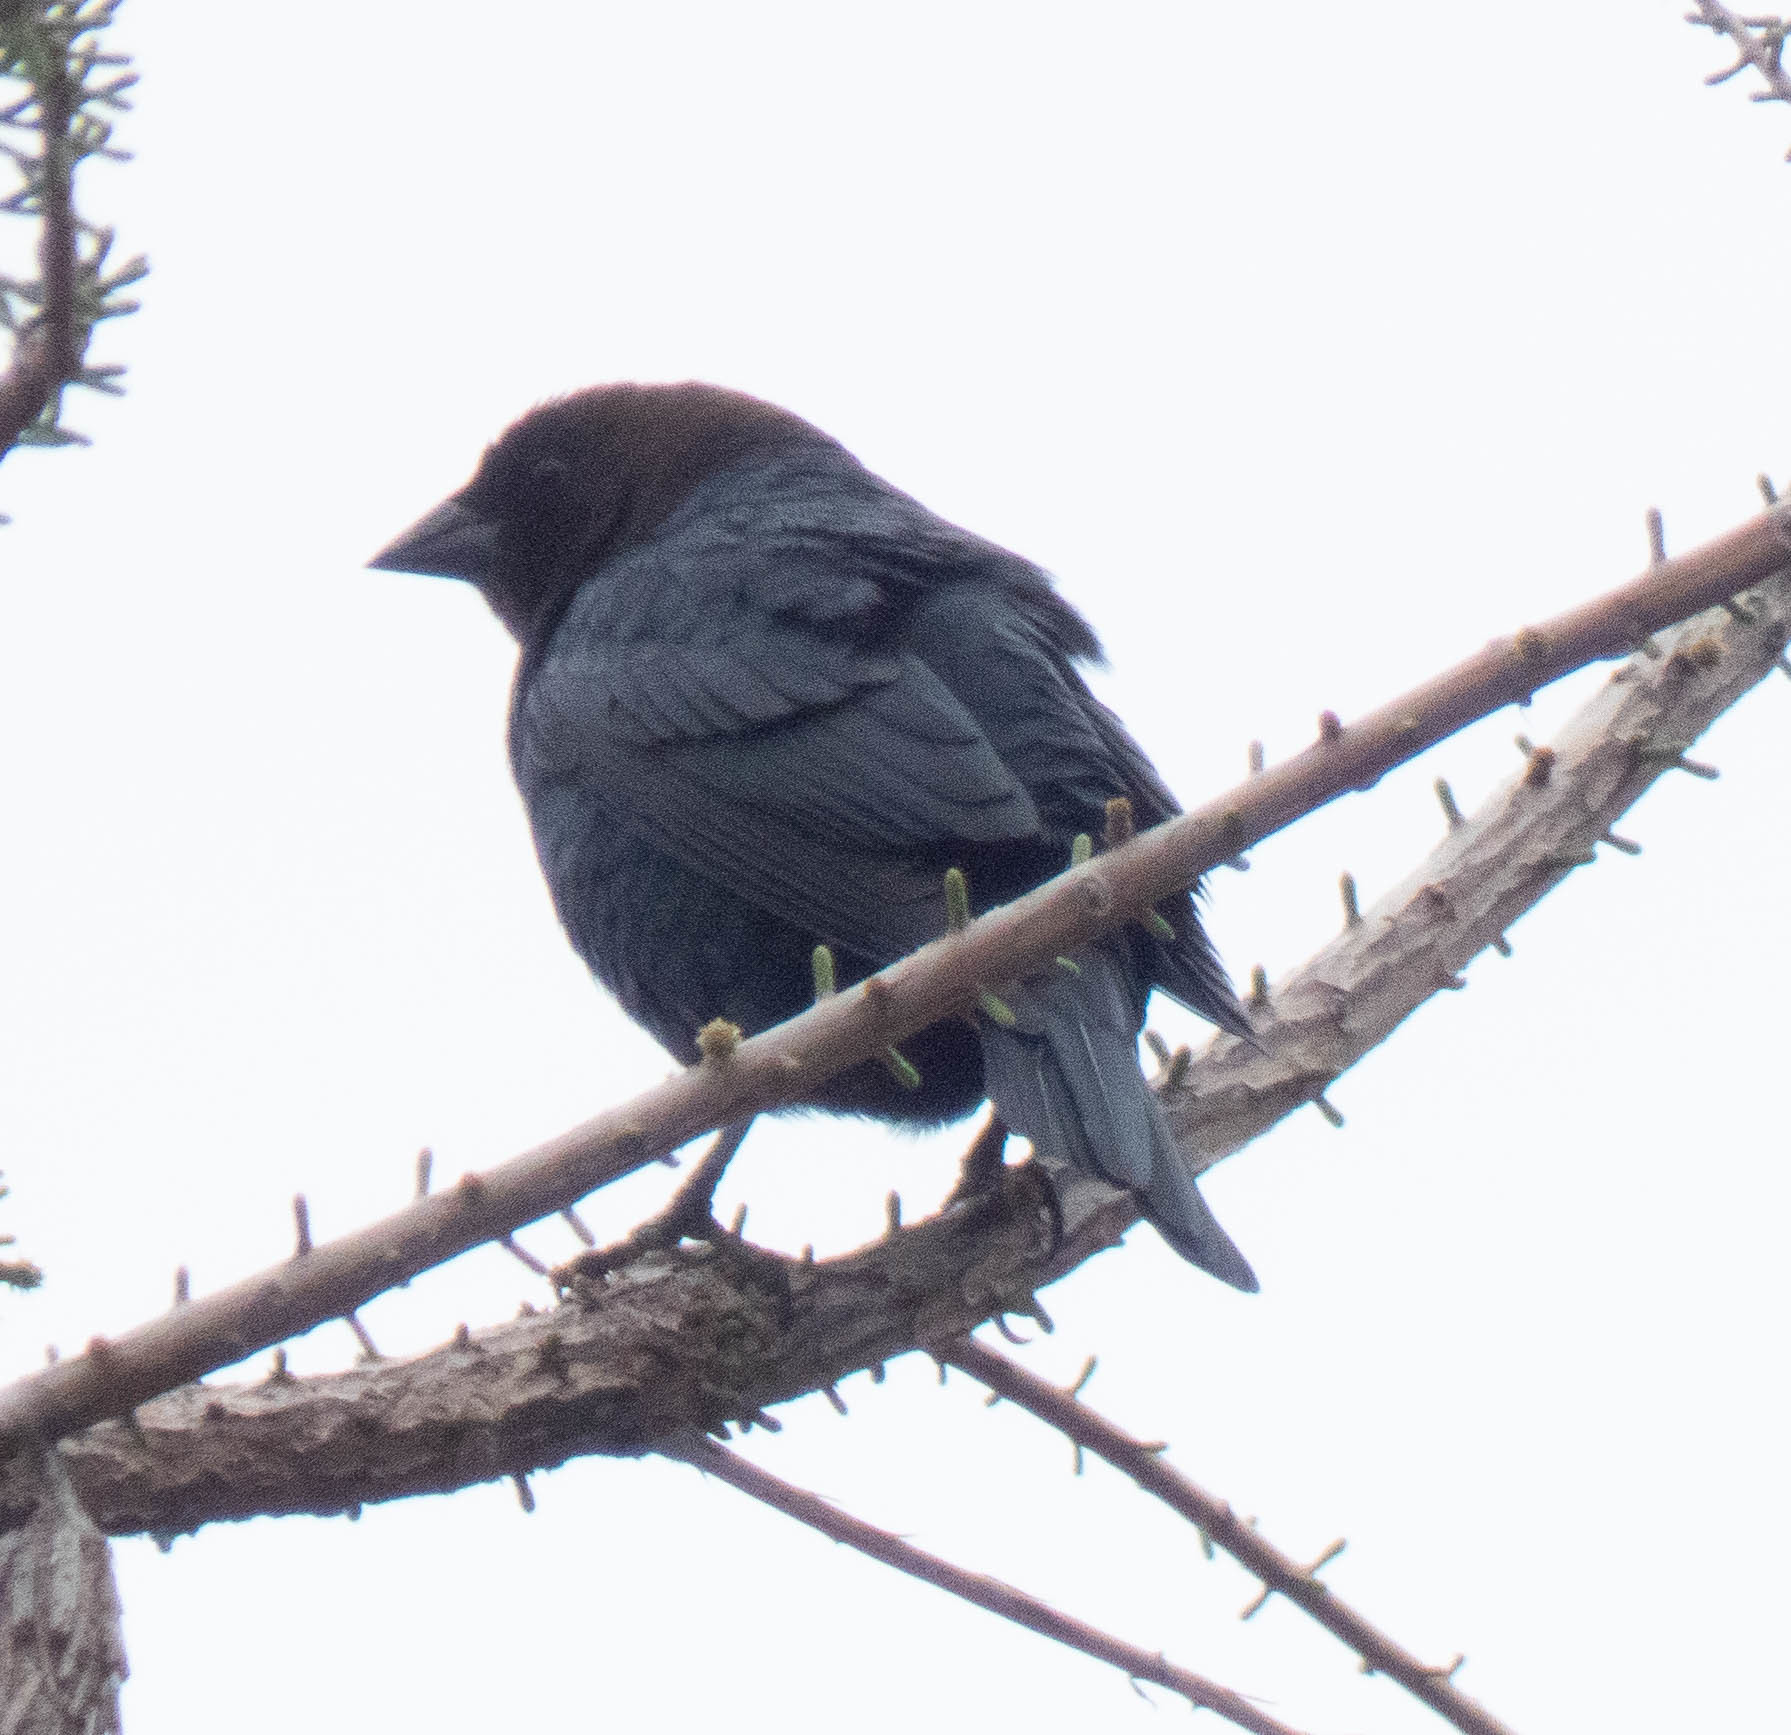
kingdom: Animalia
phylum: Chordata
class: Aves
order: Passeriformes
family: Icteridae
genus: Molothrus
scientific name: Molothrus ater
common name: Brown-headed cowbird
